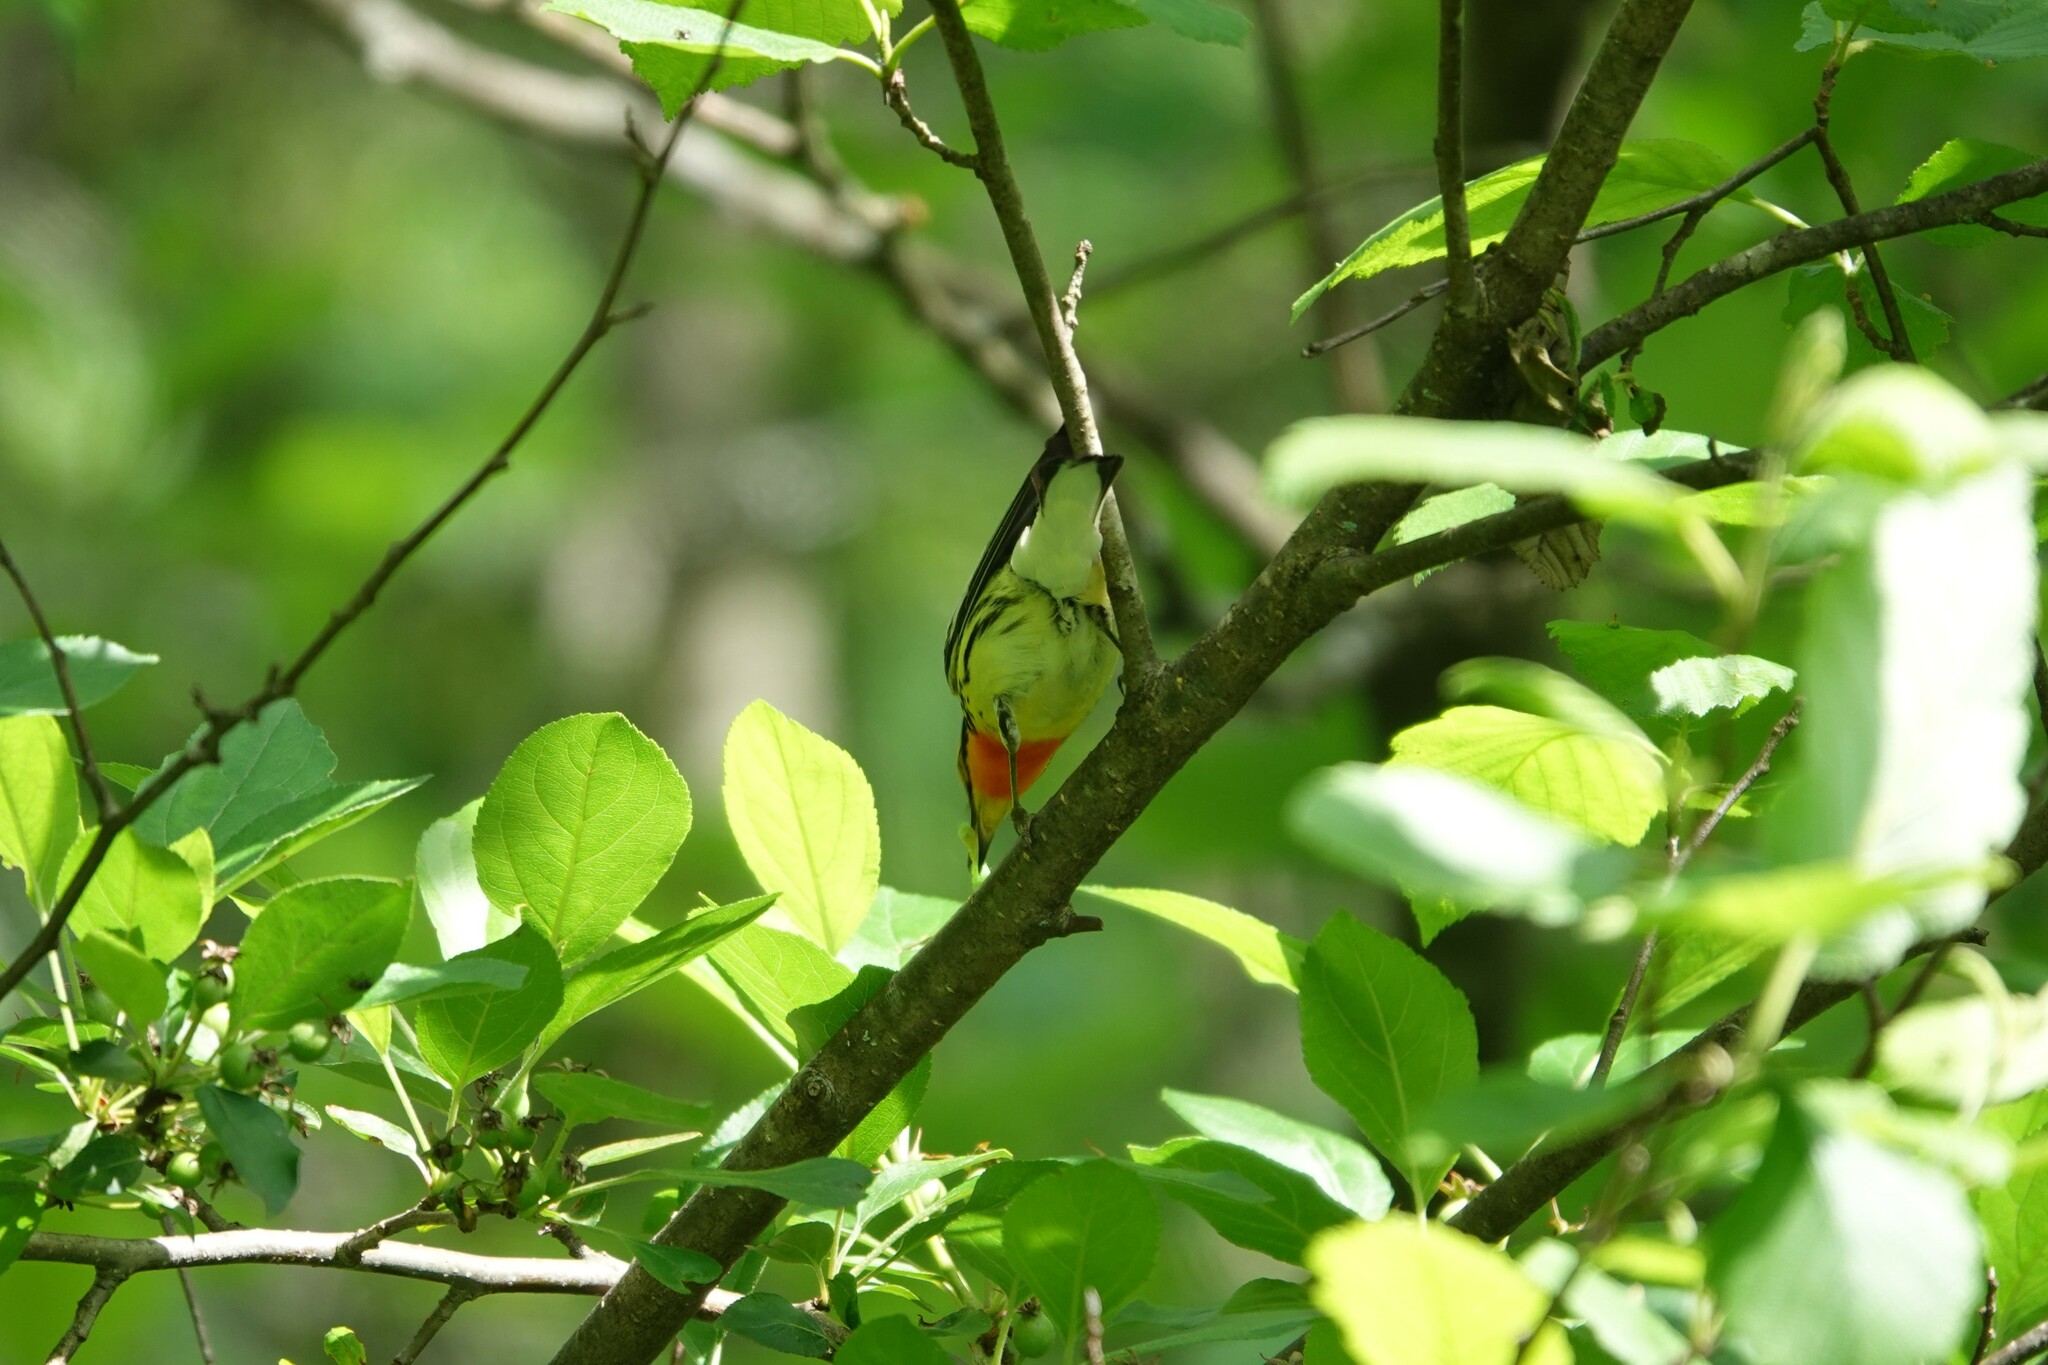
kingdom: Animalia
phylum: Chordata
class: Aves
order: Passeriformes
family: Parulidae
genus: Setophaga
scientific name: Setophaga fusca
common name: Blackburnian warbler
